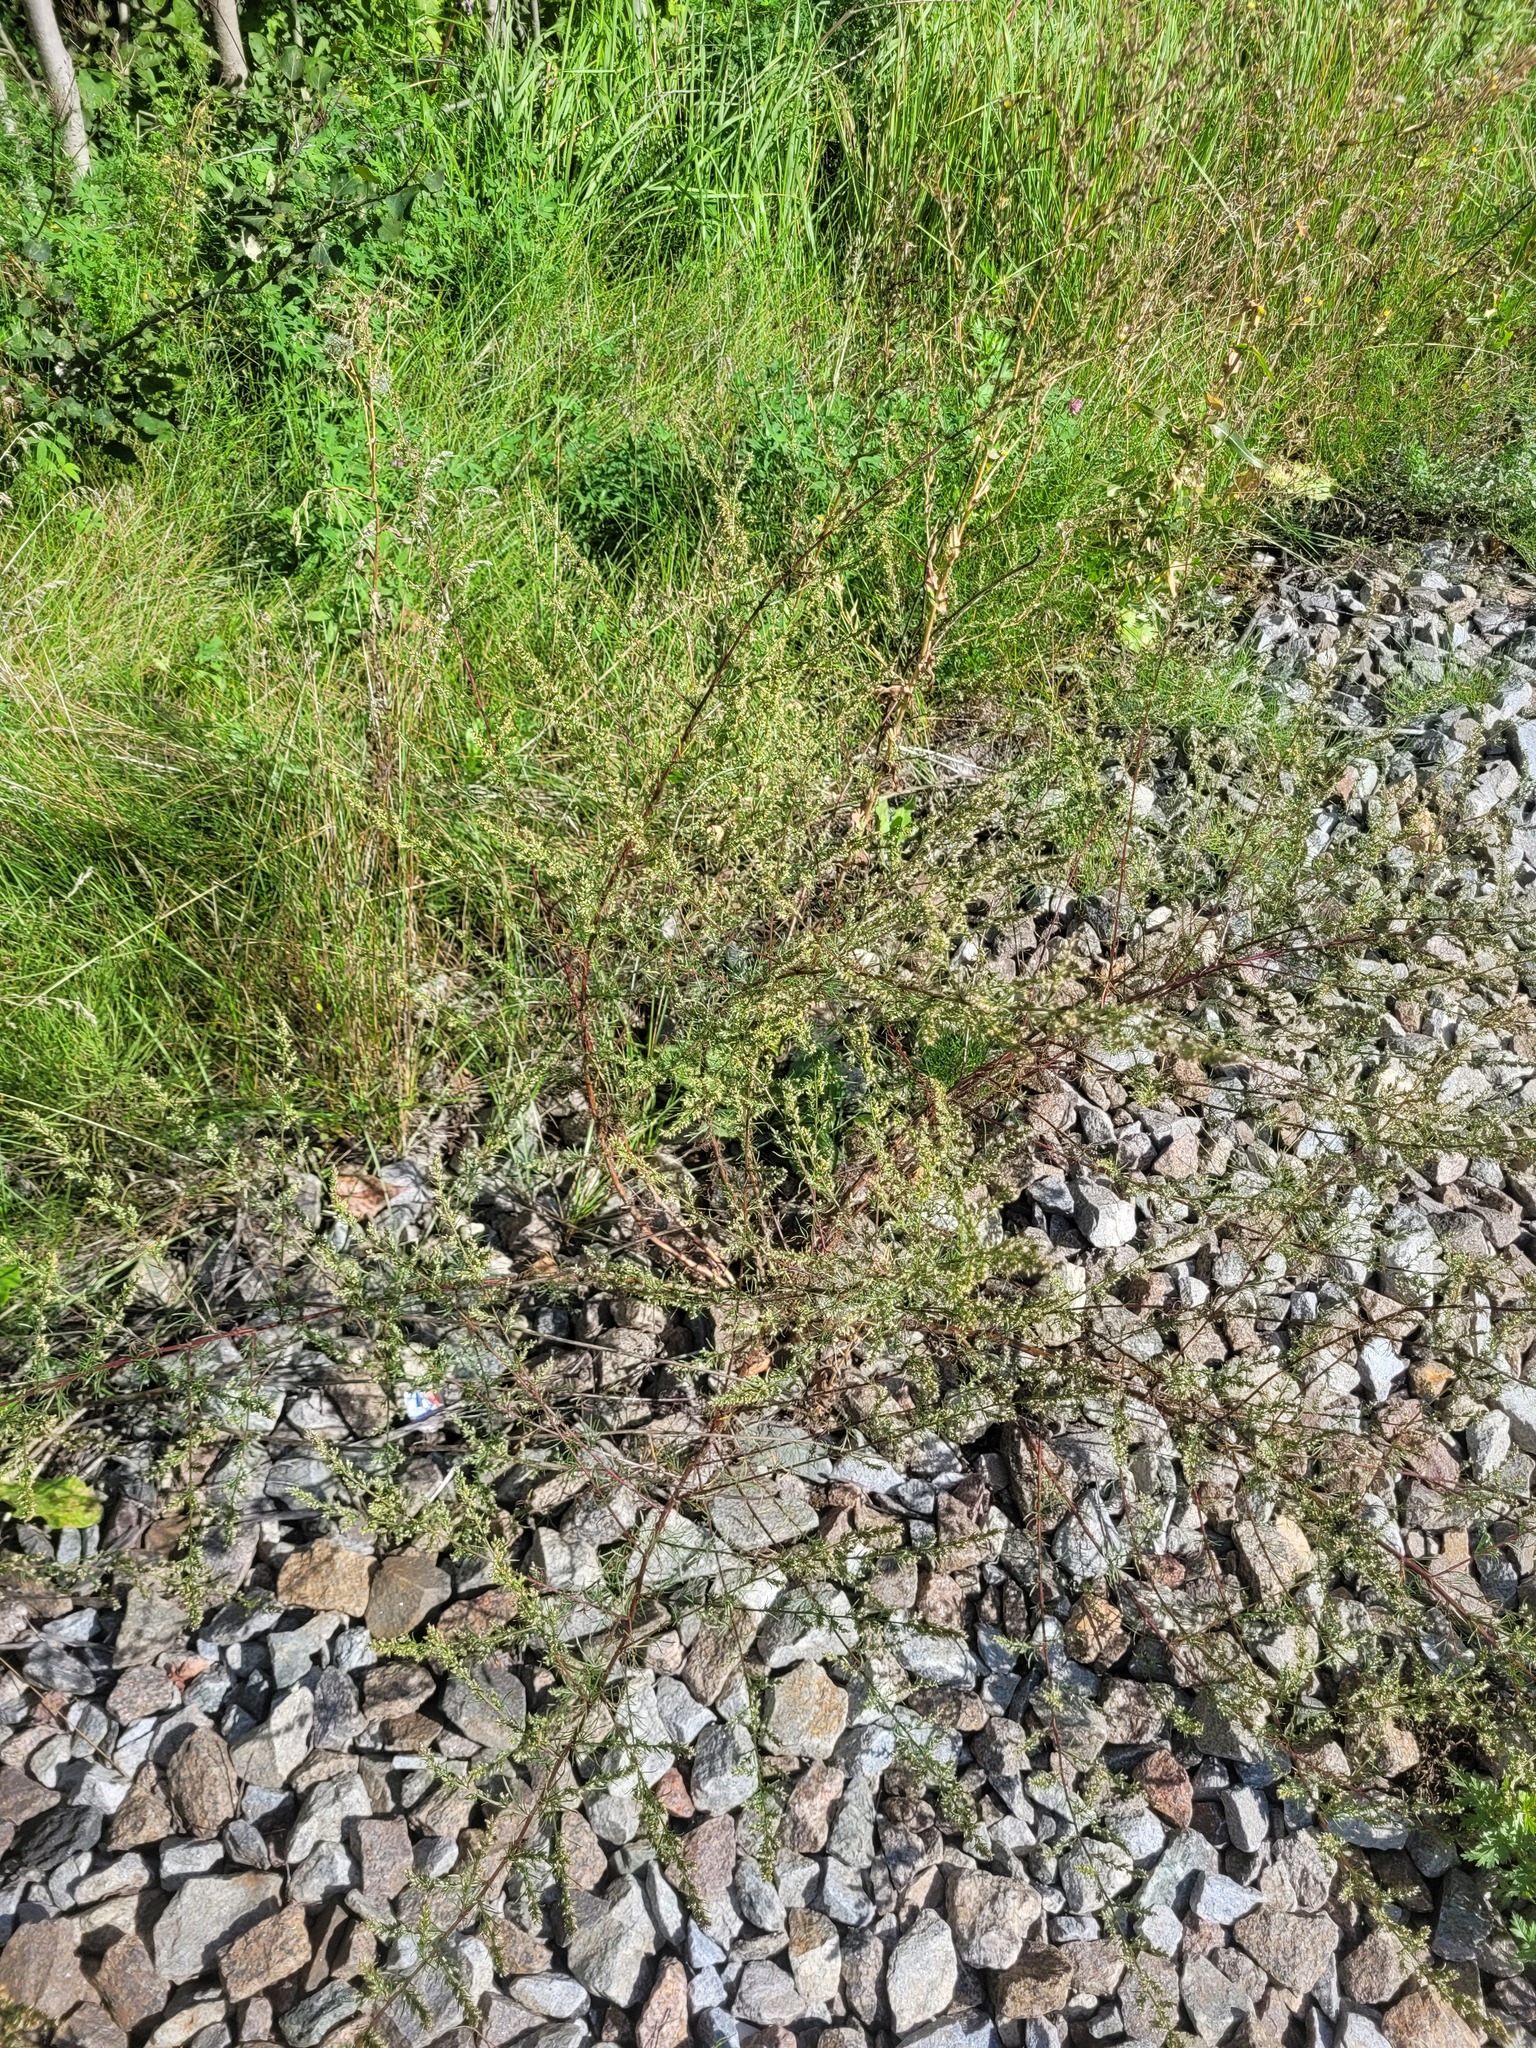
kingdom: Plantae
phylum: Tracheophyta
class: Magnoliopsida
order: Asterales
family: Asteraceae
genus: Artemisia
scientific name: Artemisia campestris
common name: Field wormwood
